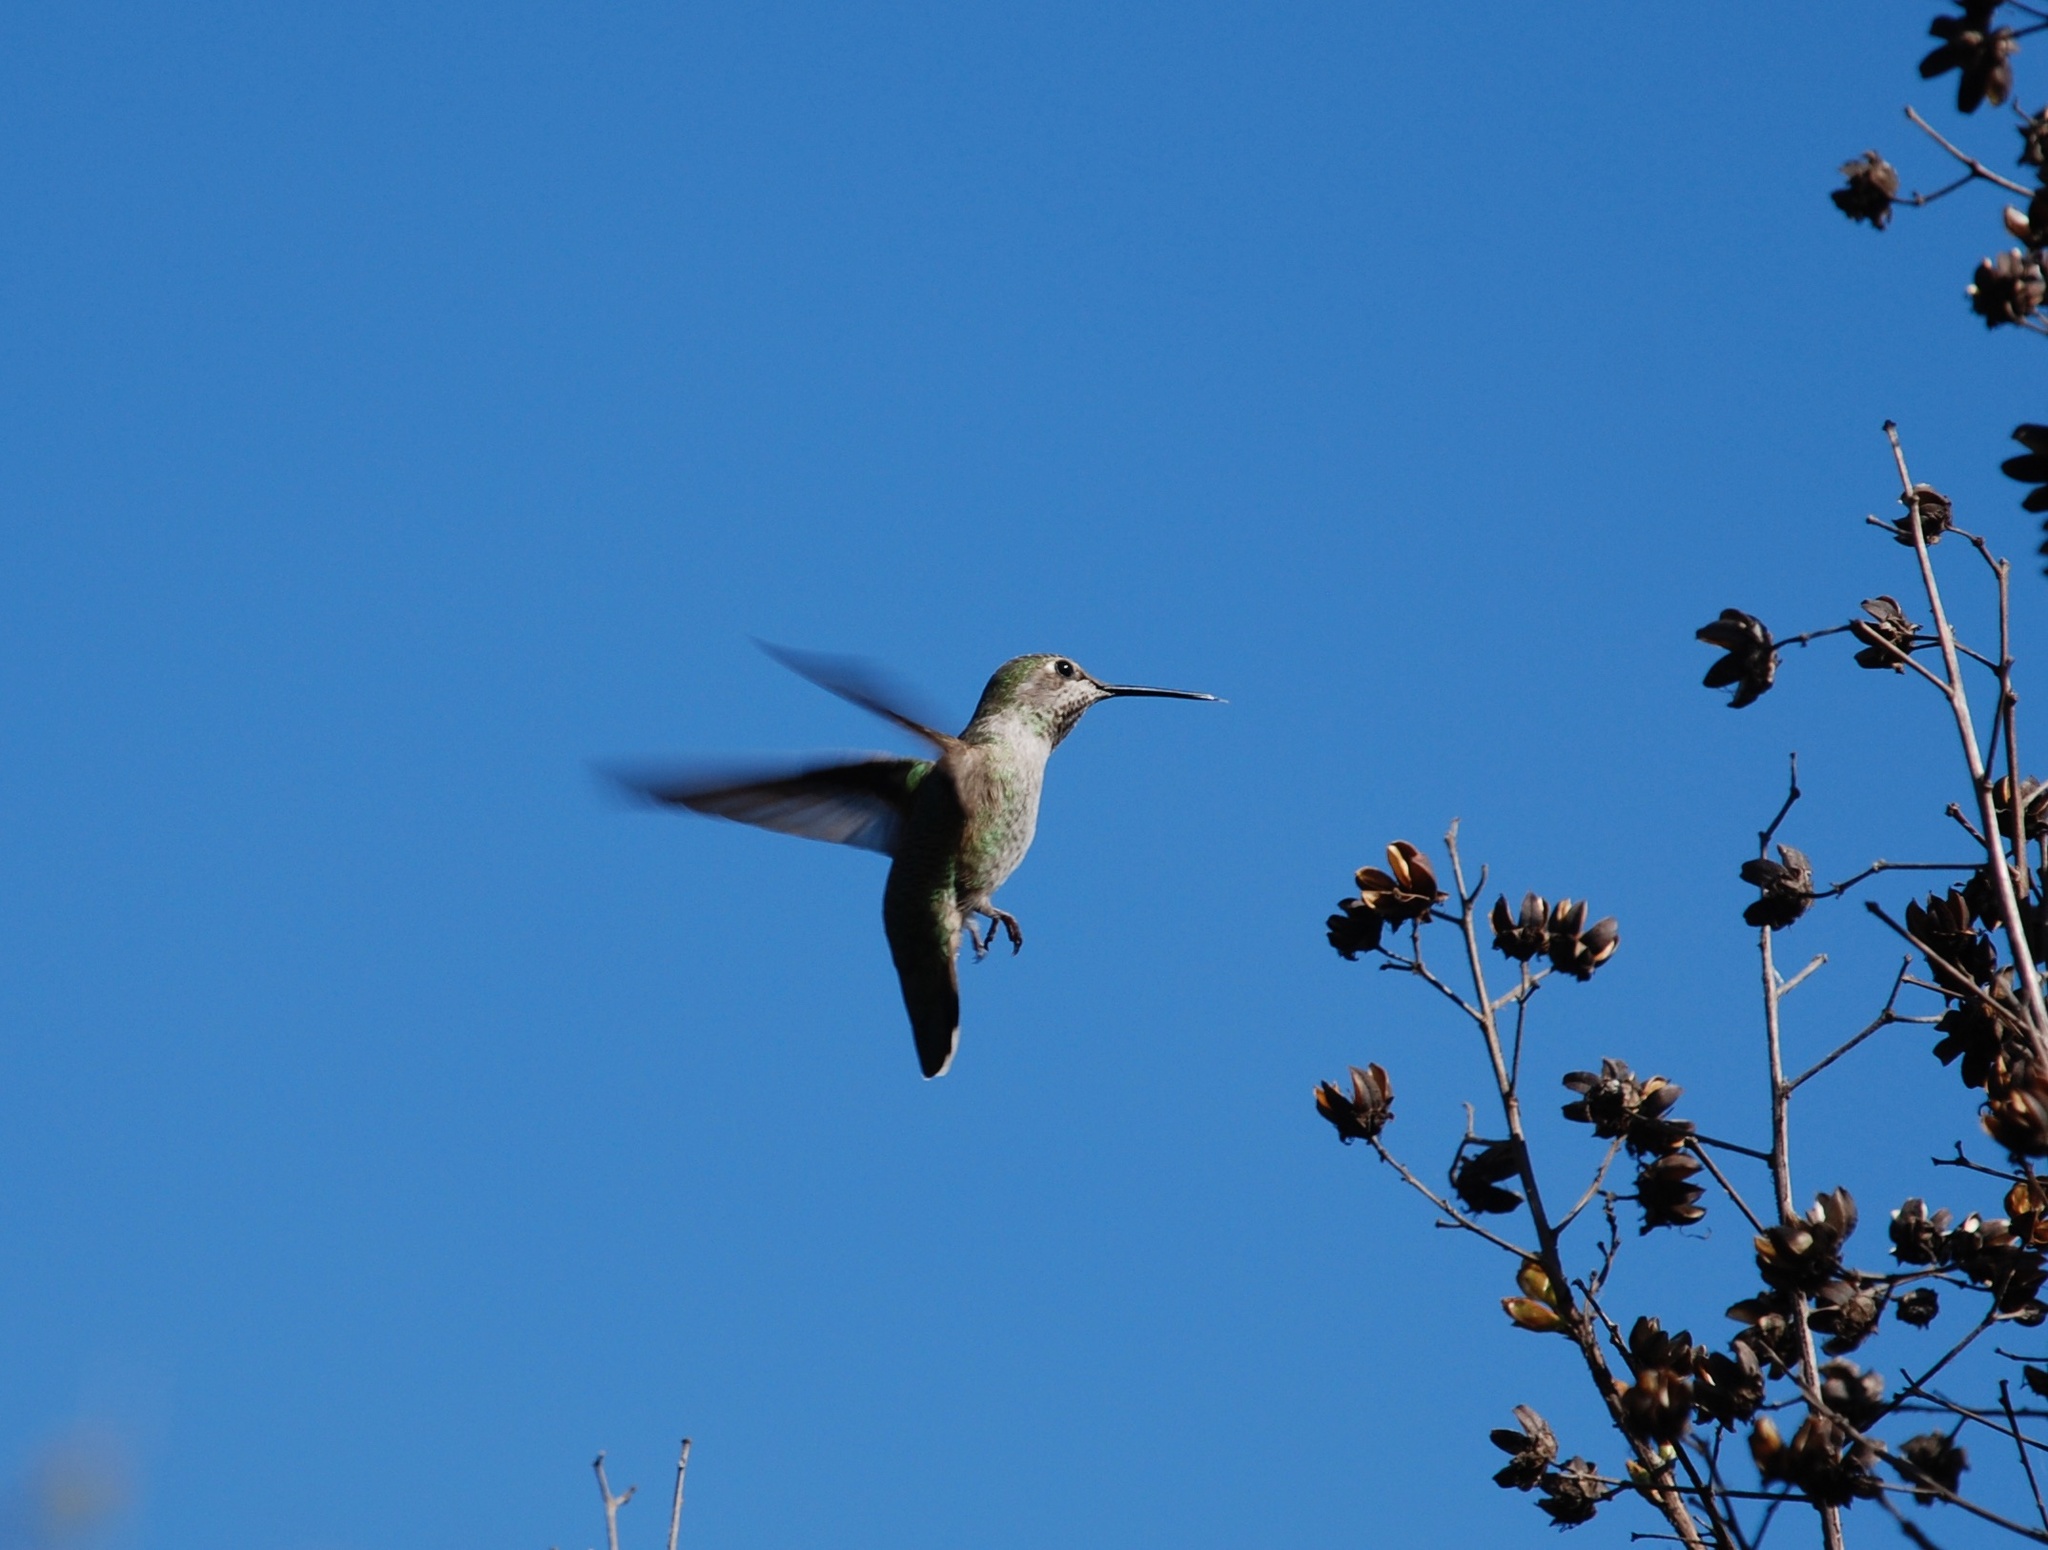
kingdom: Animalia
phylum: Chordata
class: Aves
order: Apodiformes
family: Trochilidae
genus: Calypte
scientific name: Calypte anna
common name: Anna's hummingbird
